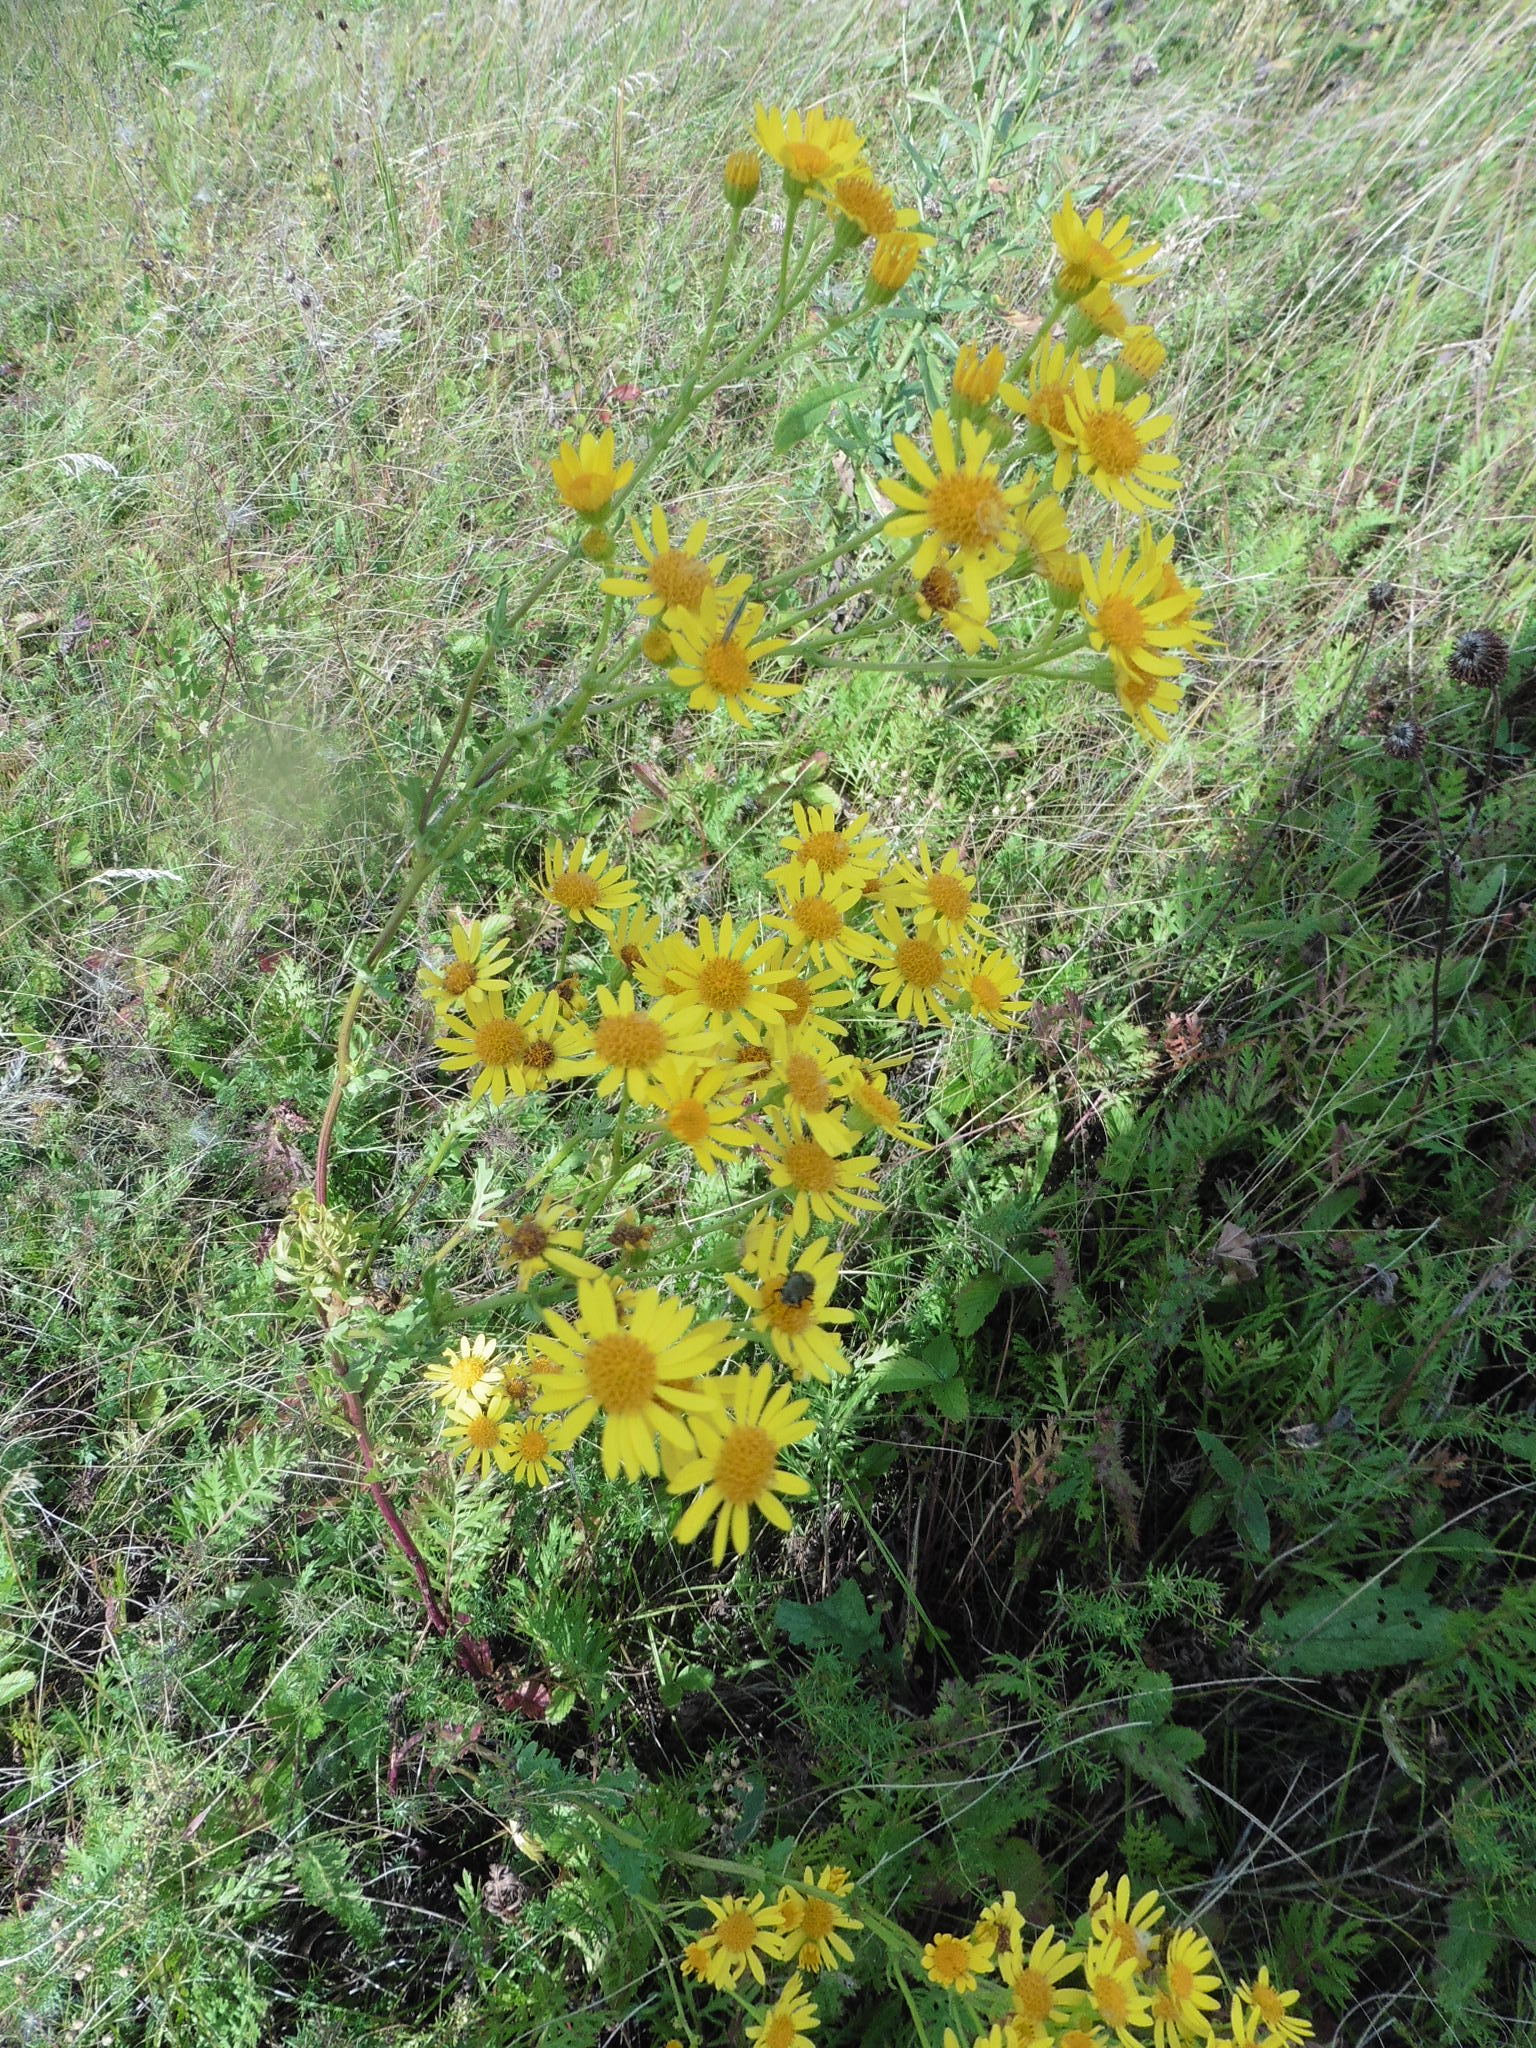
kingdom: Plantae
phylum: Tracheophyta
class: Magnoliopsida
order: Asterales
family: Asteraceae
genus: Jacobaea
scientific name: Jacobaea vulgaris
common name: Stinking willie
